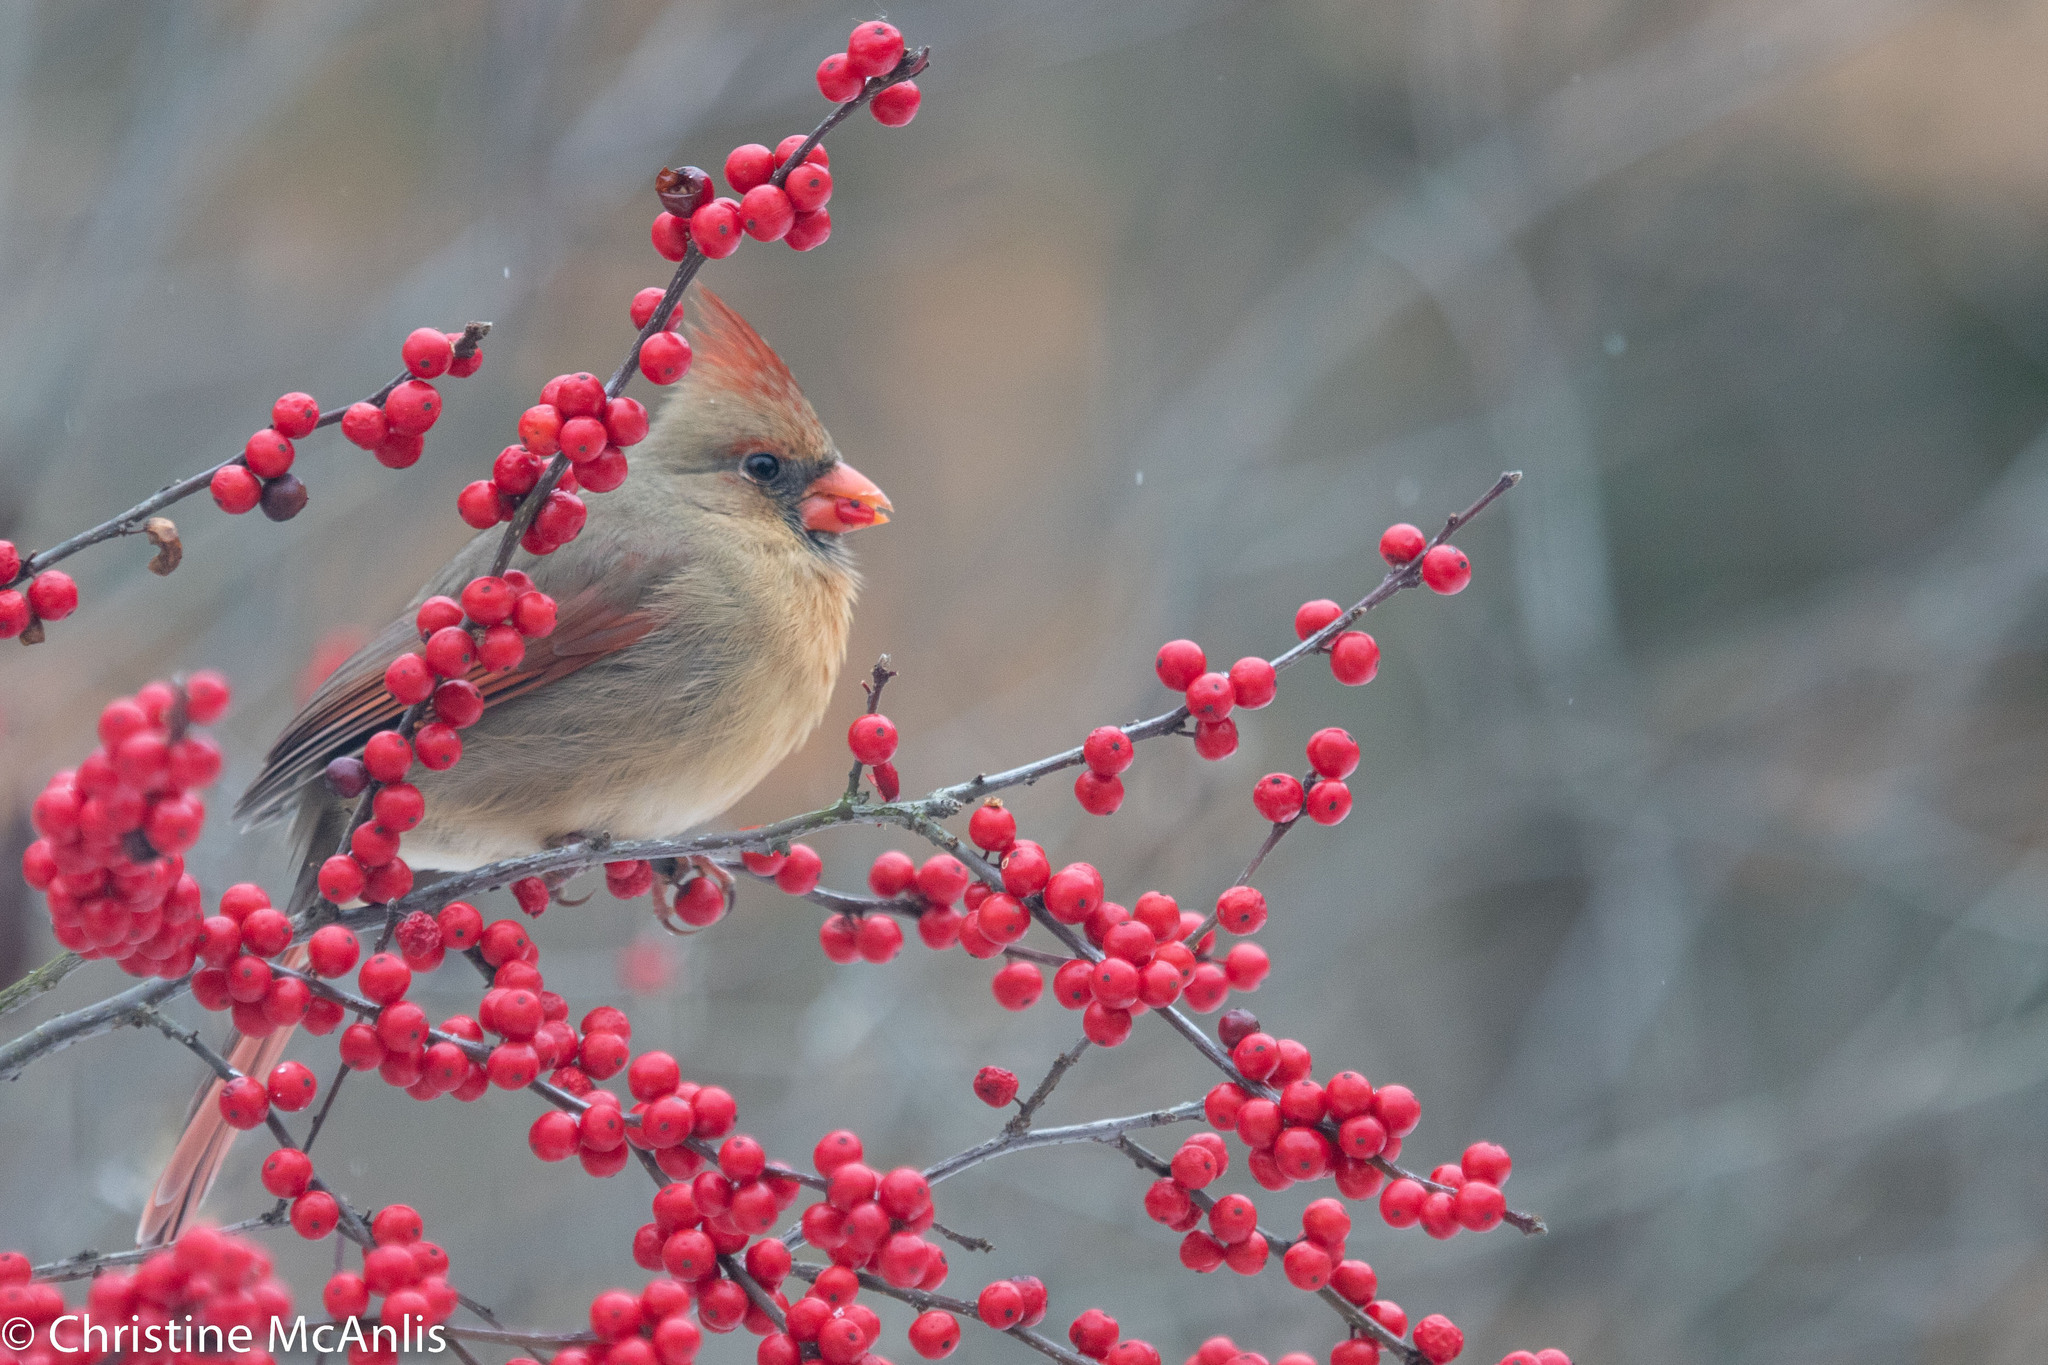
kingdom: Animalia
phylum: Chordata
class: Aves
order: Passeriformes
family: Cardinalidae
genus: Cardinalis
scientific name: Cardinalis cardinalis
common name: Northern cardinal
